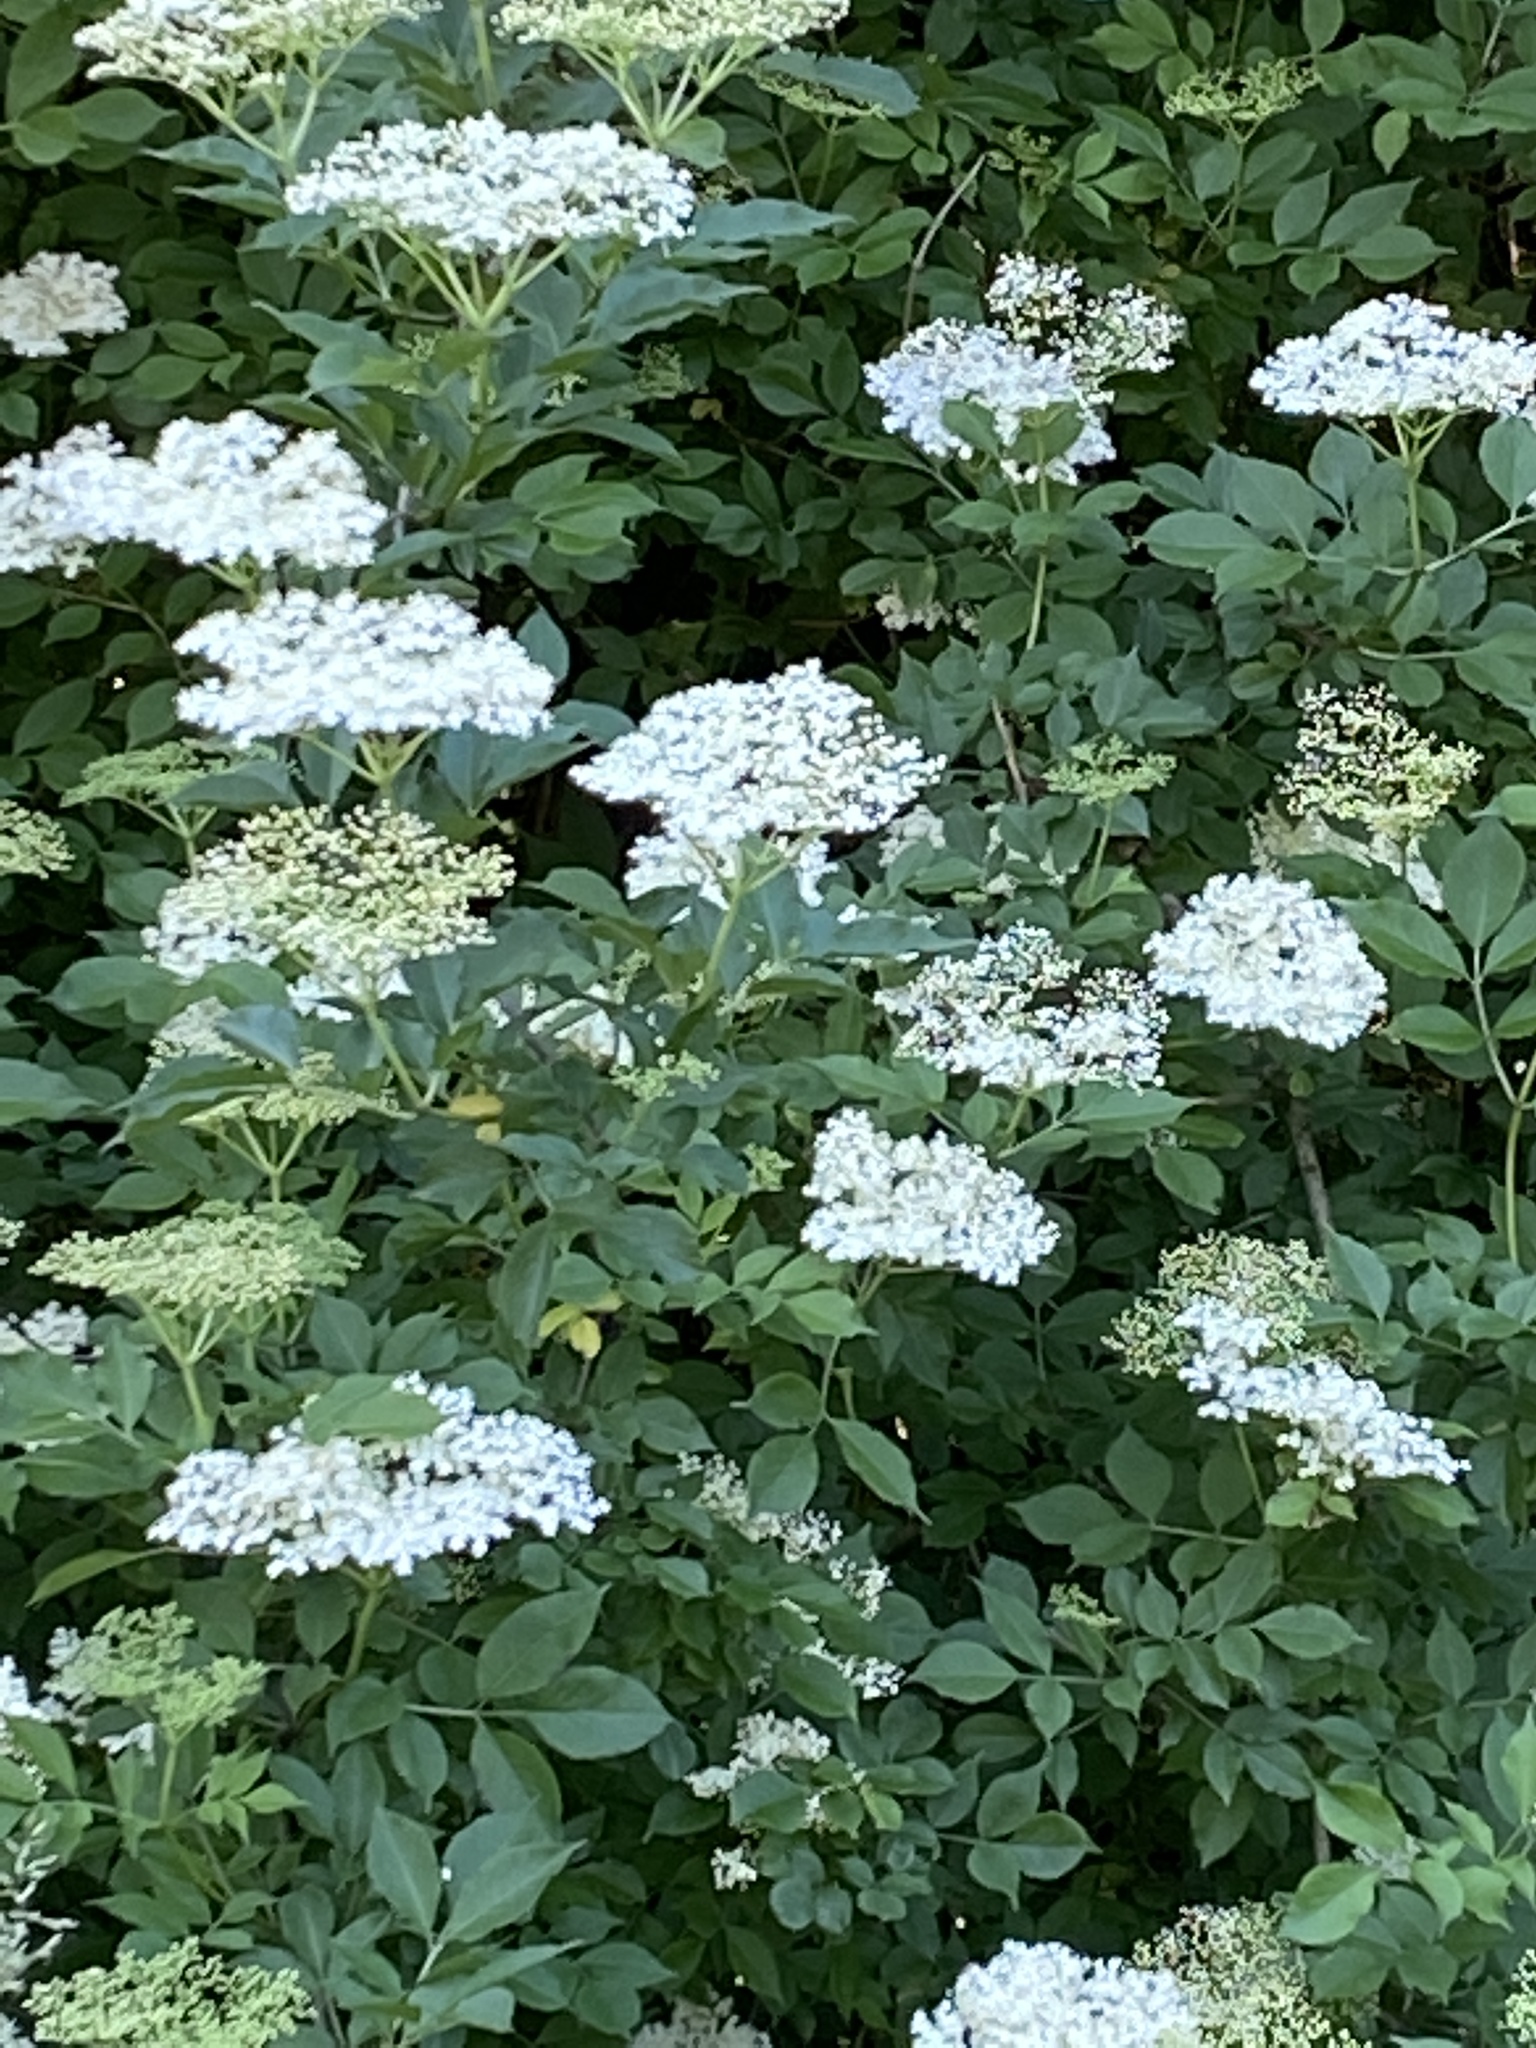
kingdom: Plantae
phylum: Tracheophyta
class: Magnoliopsida
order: Dipsacales
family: Viburnaceae
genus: Sambucus
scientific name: Sambucus nigra
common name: Elder
